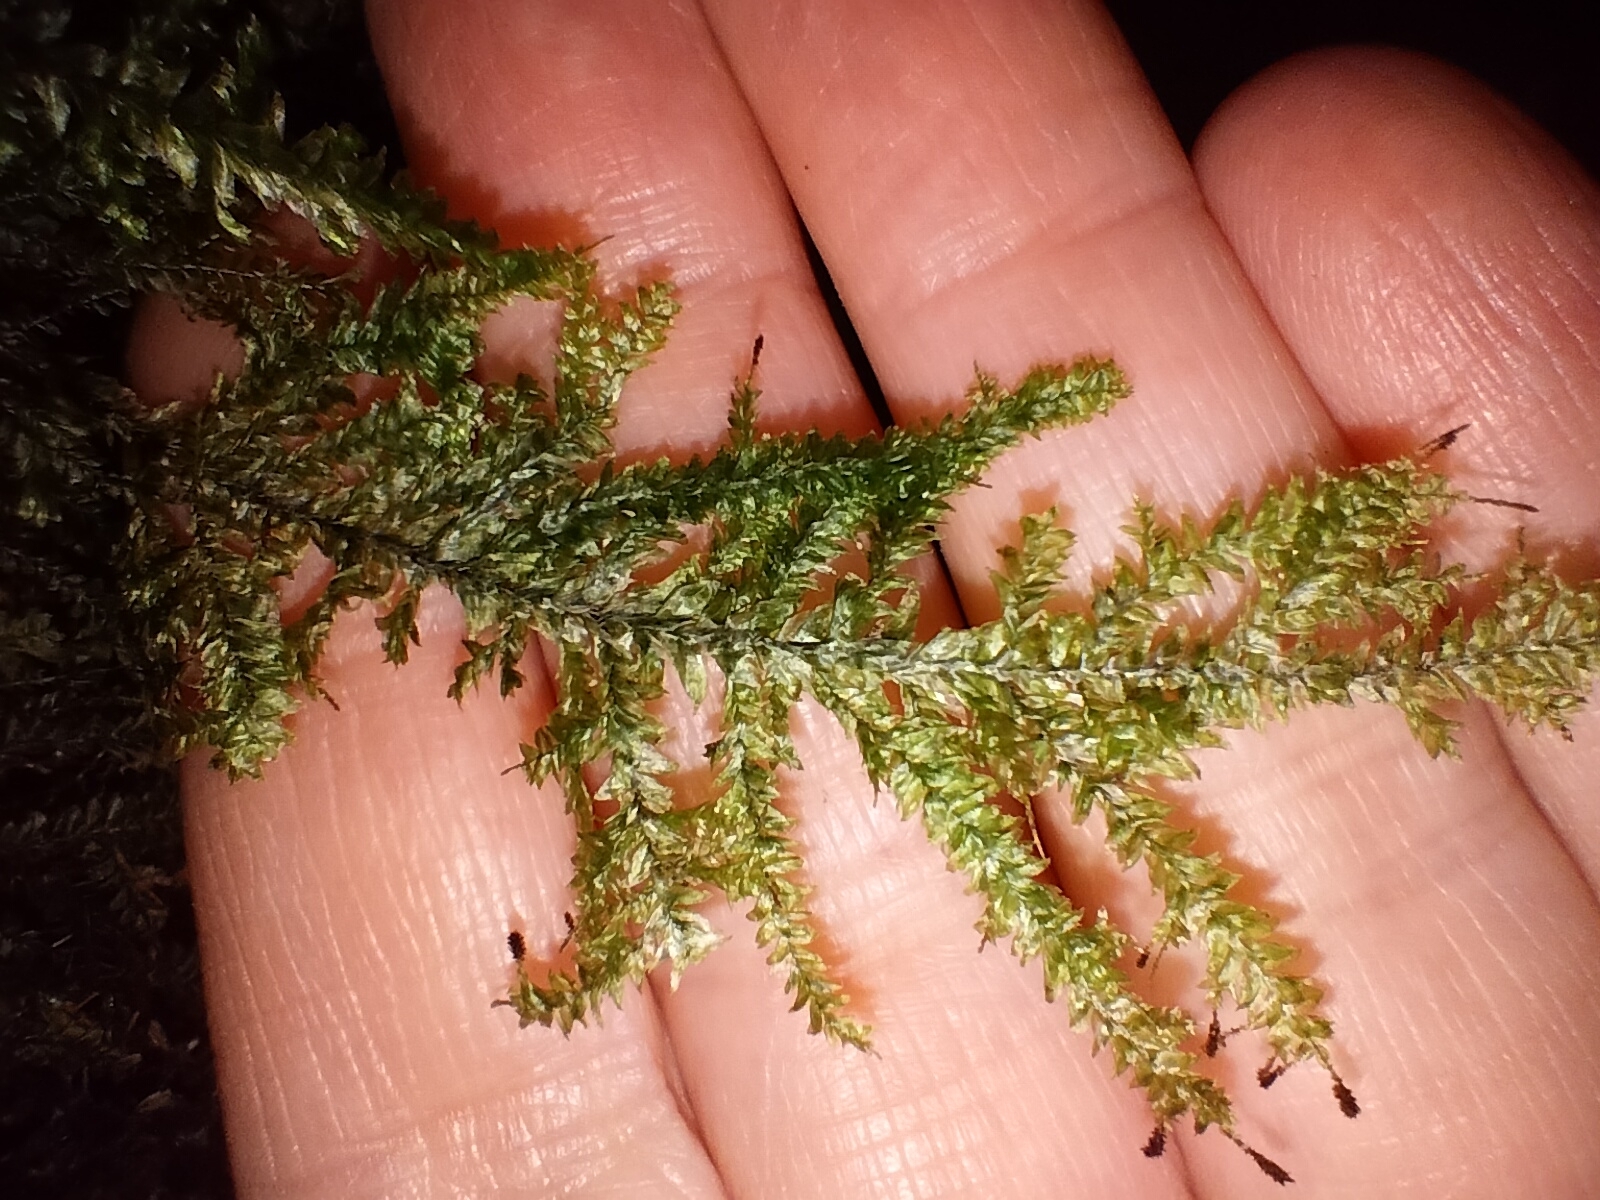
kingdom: Plantae
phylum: Bryophyta
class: Bryopsida
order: Hypnales
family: Trachylomataceae
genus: Trachyloma
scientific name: Trachyloma diversinerve
